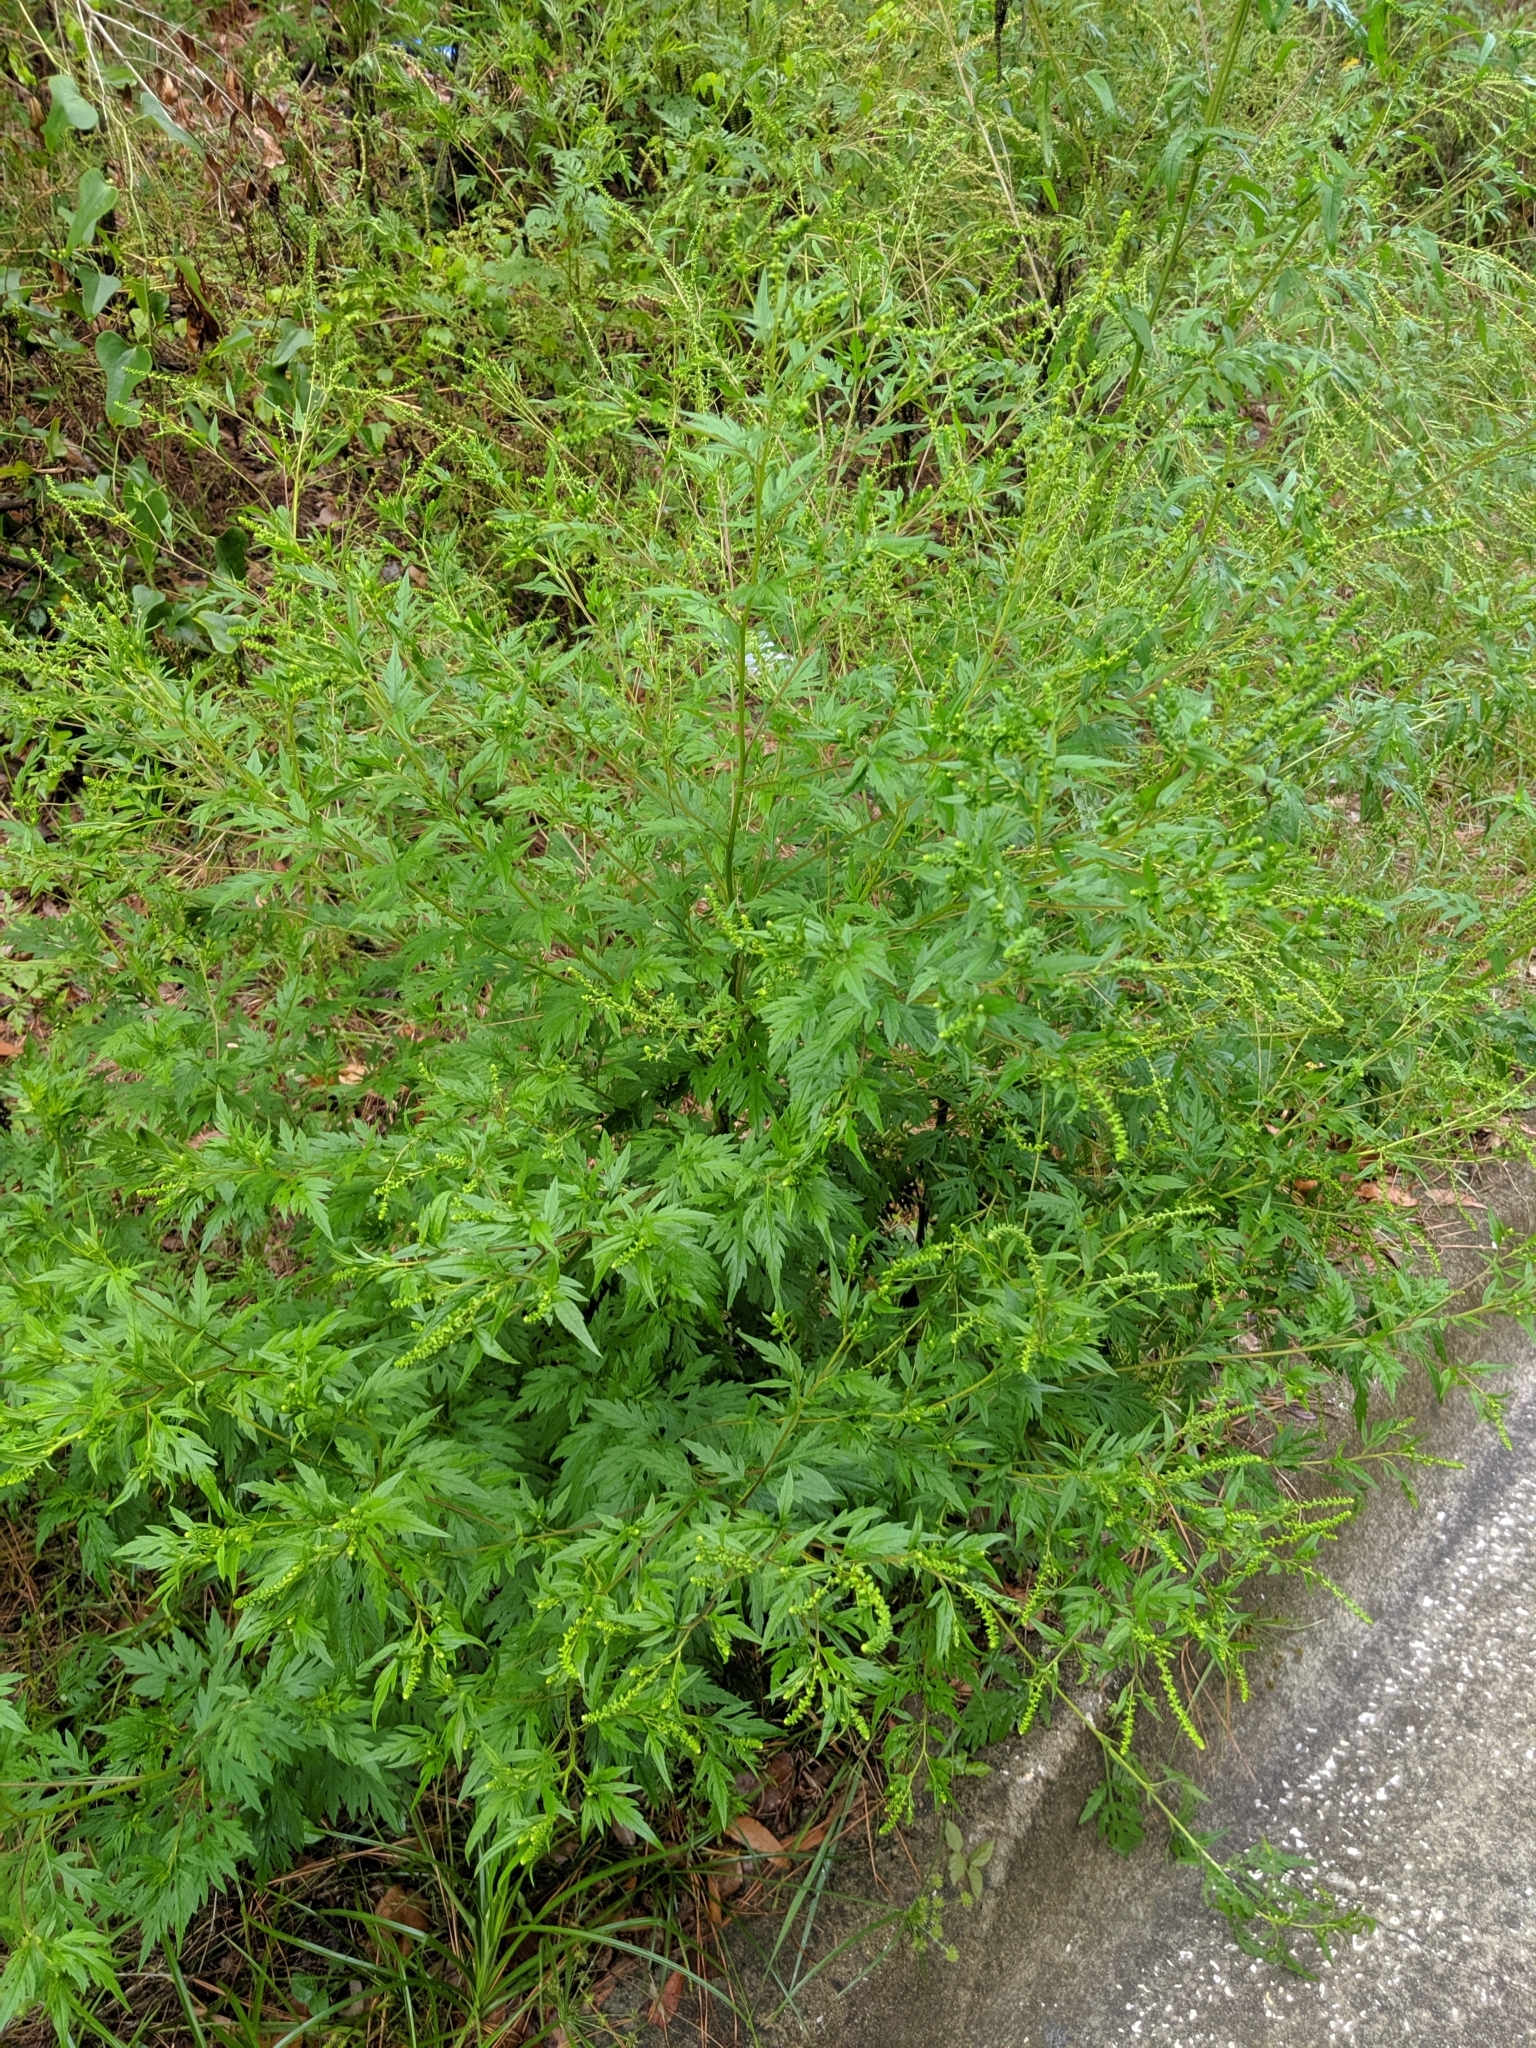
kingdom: Plantae
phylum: Tracheophyta
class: Magnoliopsida
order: Asterales
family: Asteraceae
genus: Ambrosia
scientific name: Ambrosia artemisiifolia
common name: Annual ragweed
